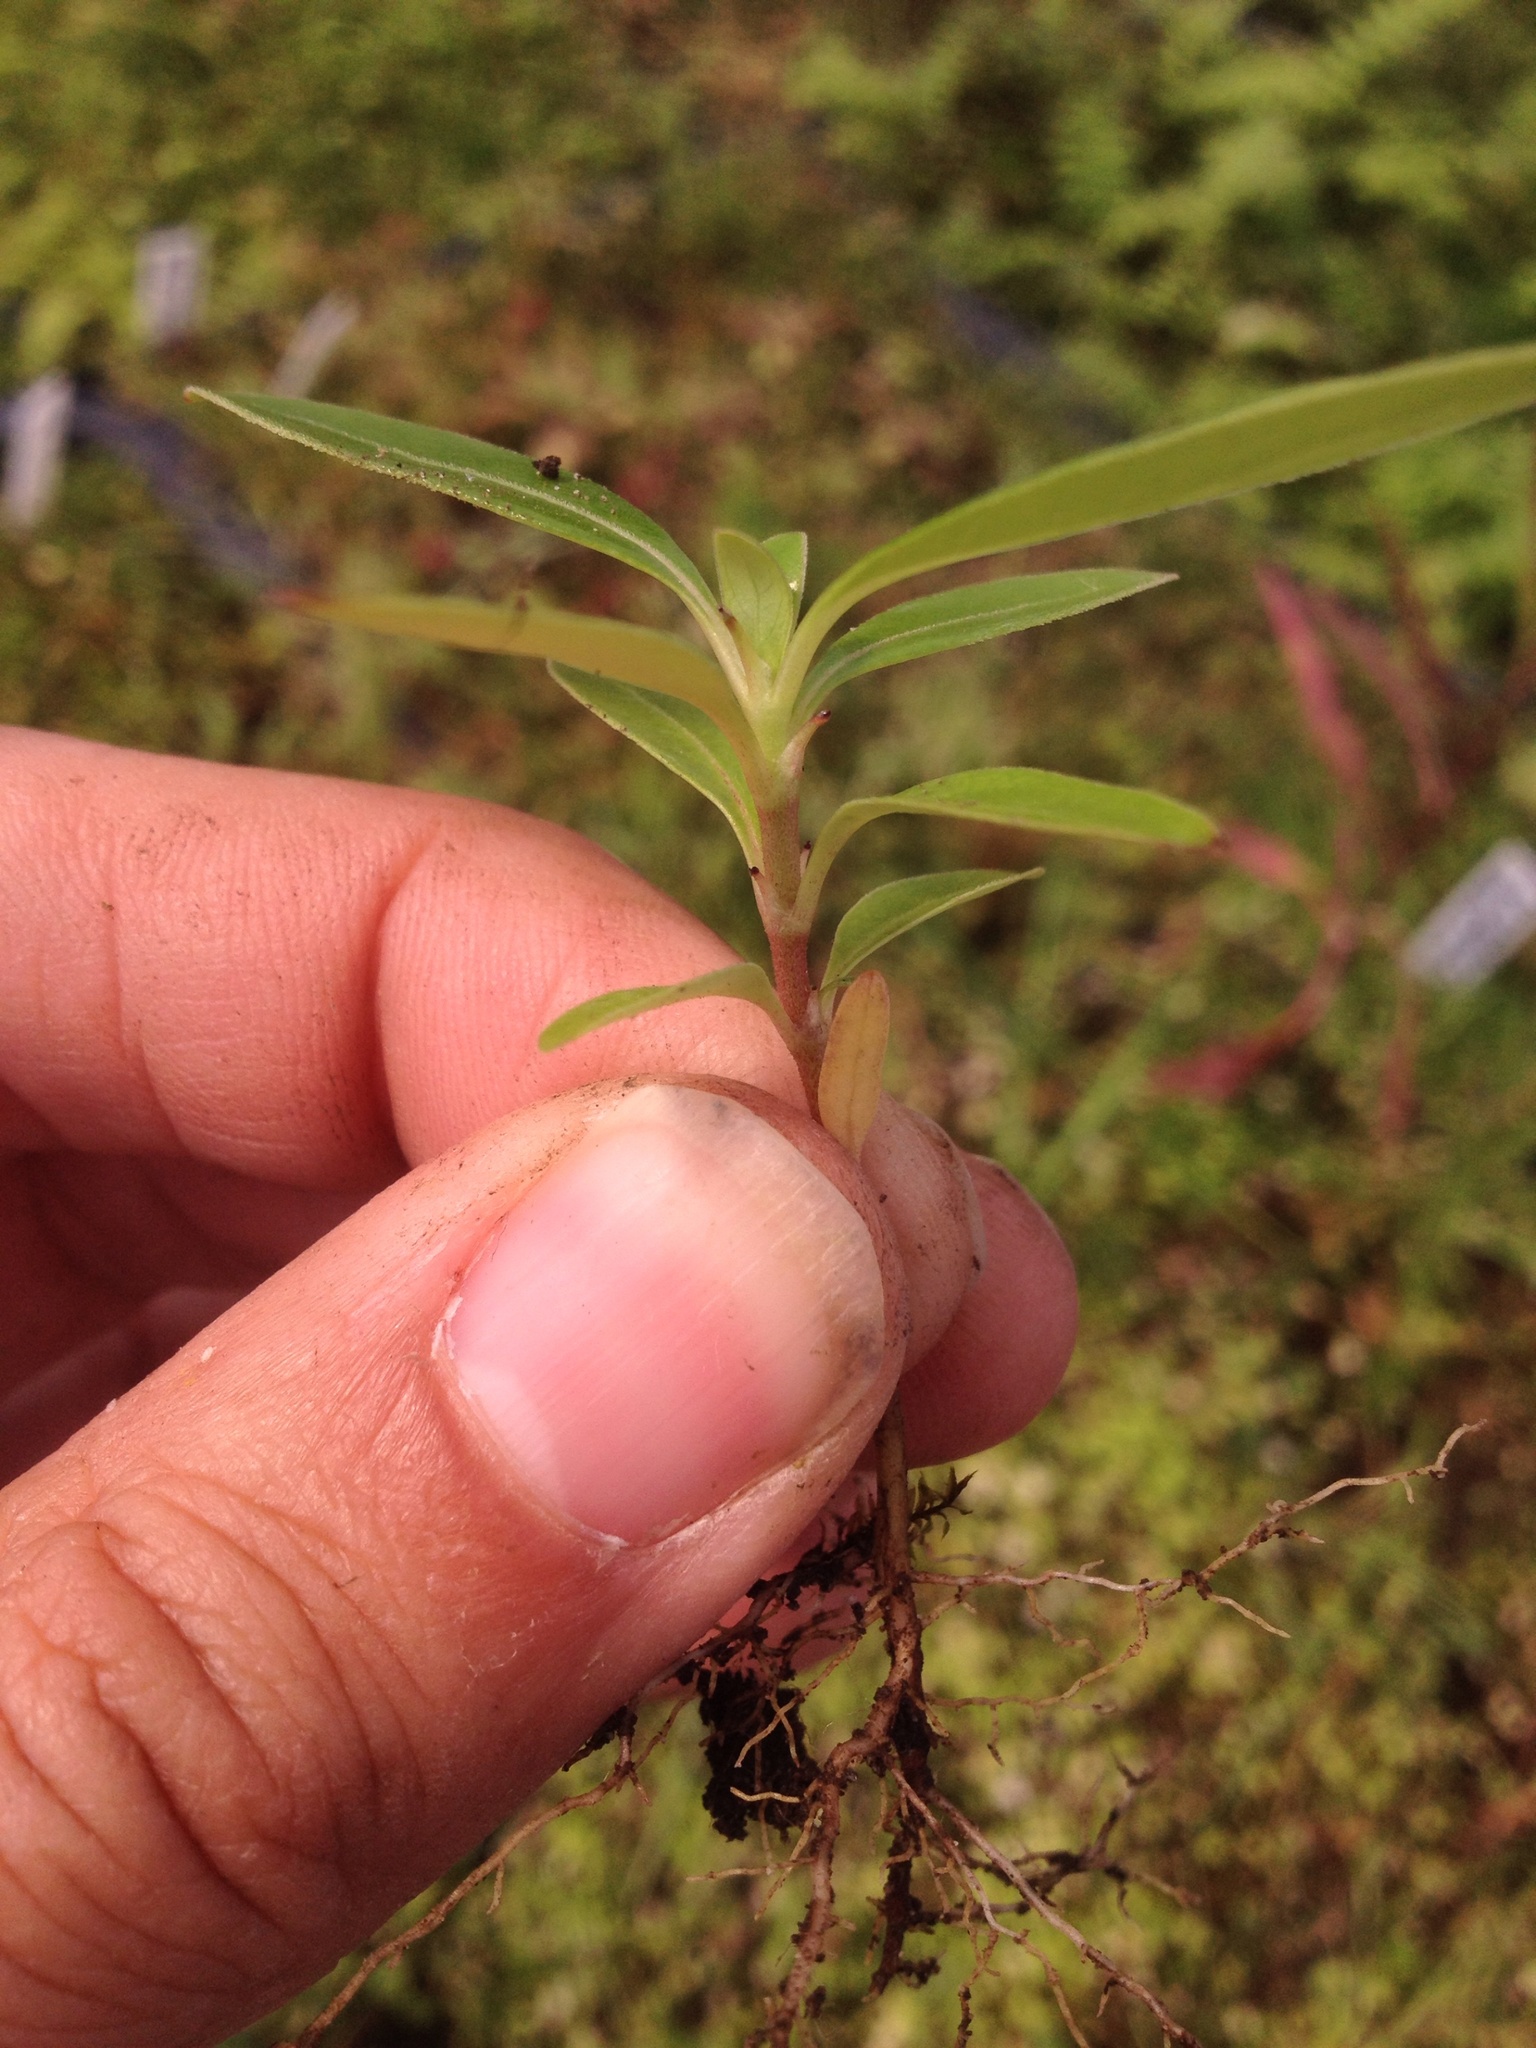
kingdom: Plantae
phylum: Tracheophyta
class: Magnoliopsida
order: Gentianales
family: Rubiaceae
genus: Coprosma
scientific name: Coprosma robusta
